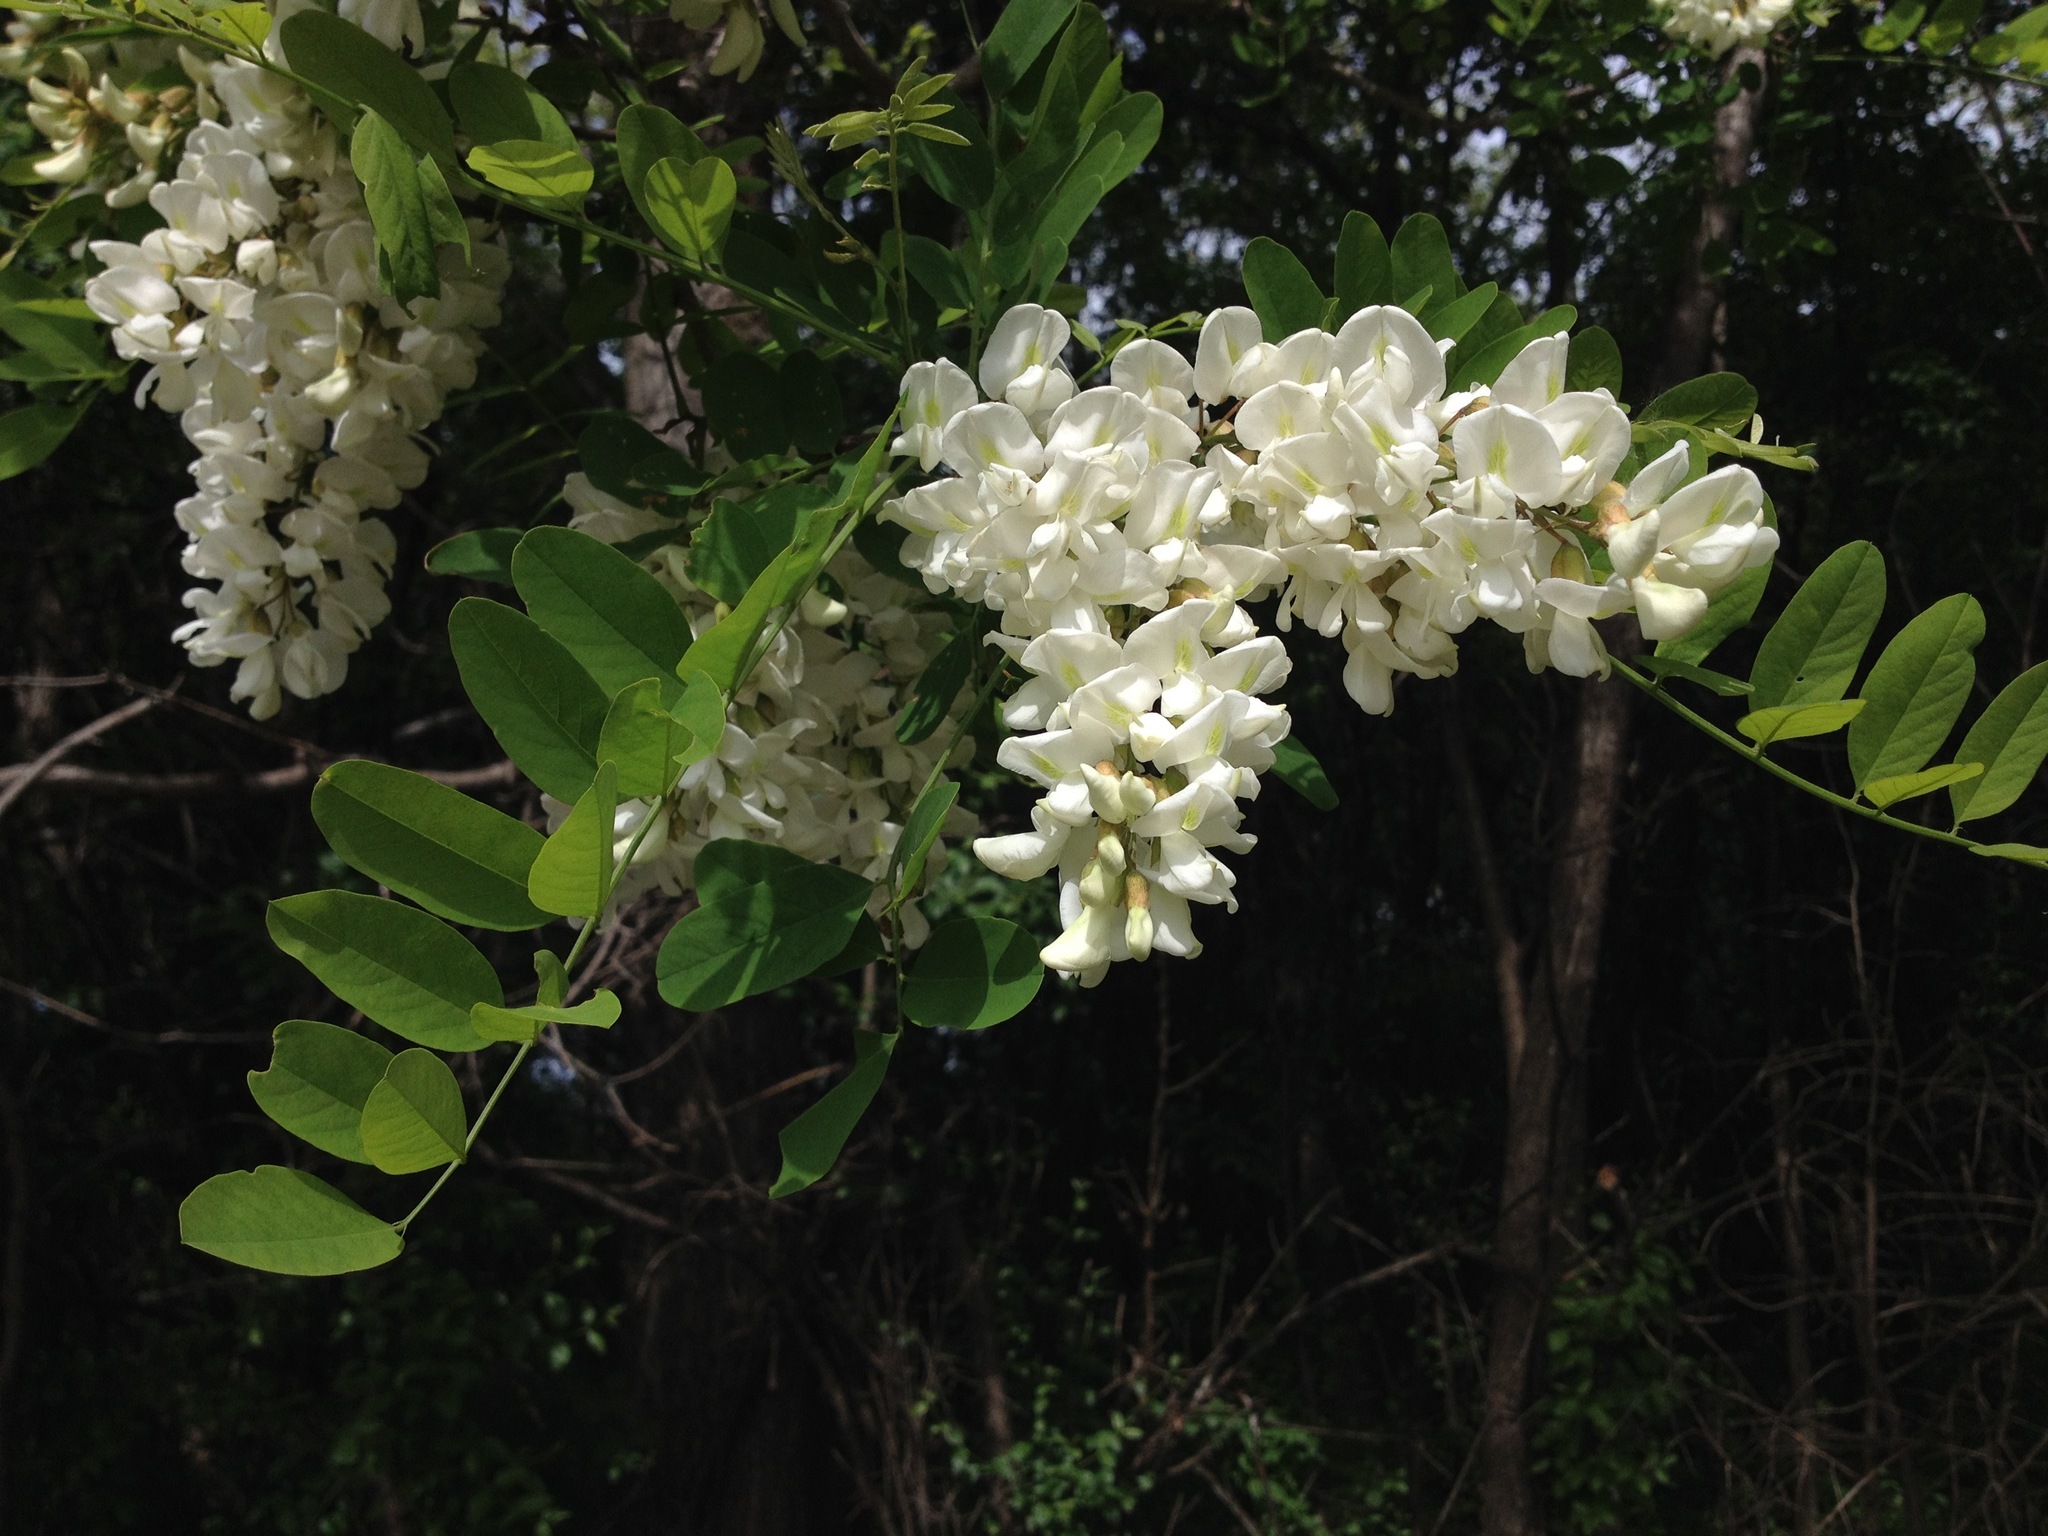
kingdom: Plantae
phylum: Tracheophyta
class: Magnoliopsida
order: Fabales
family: Fabaceae
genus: Robinia
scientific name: Robinia pseudoacacia
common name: Black locust
